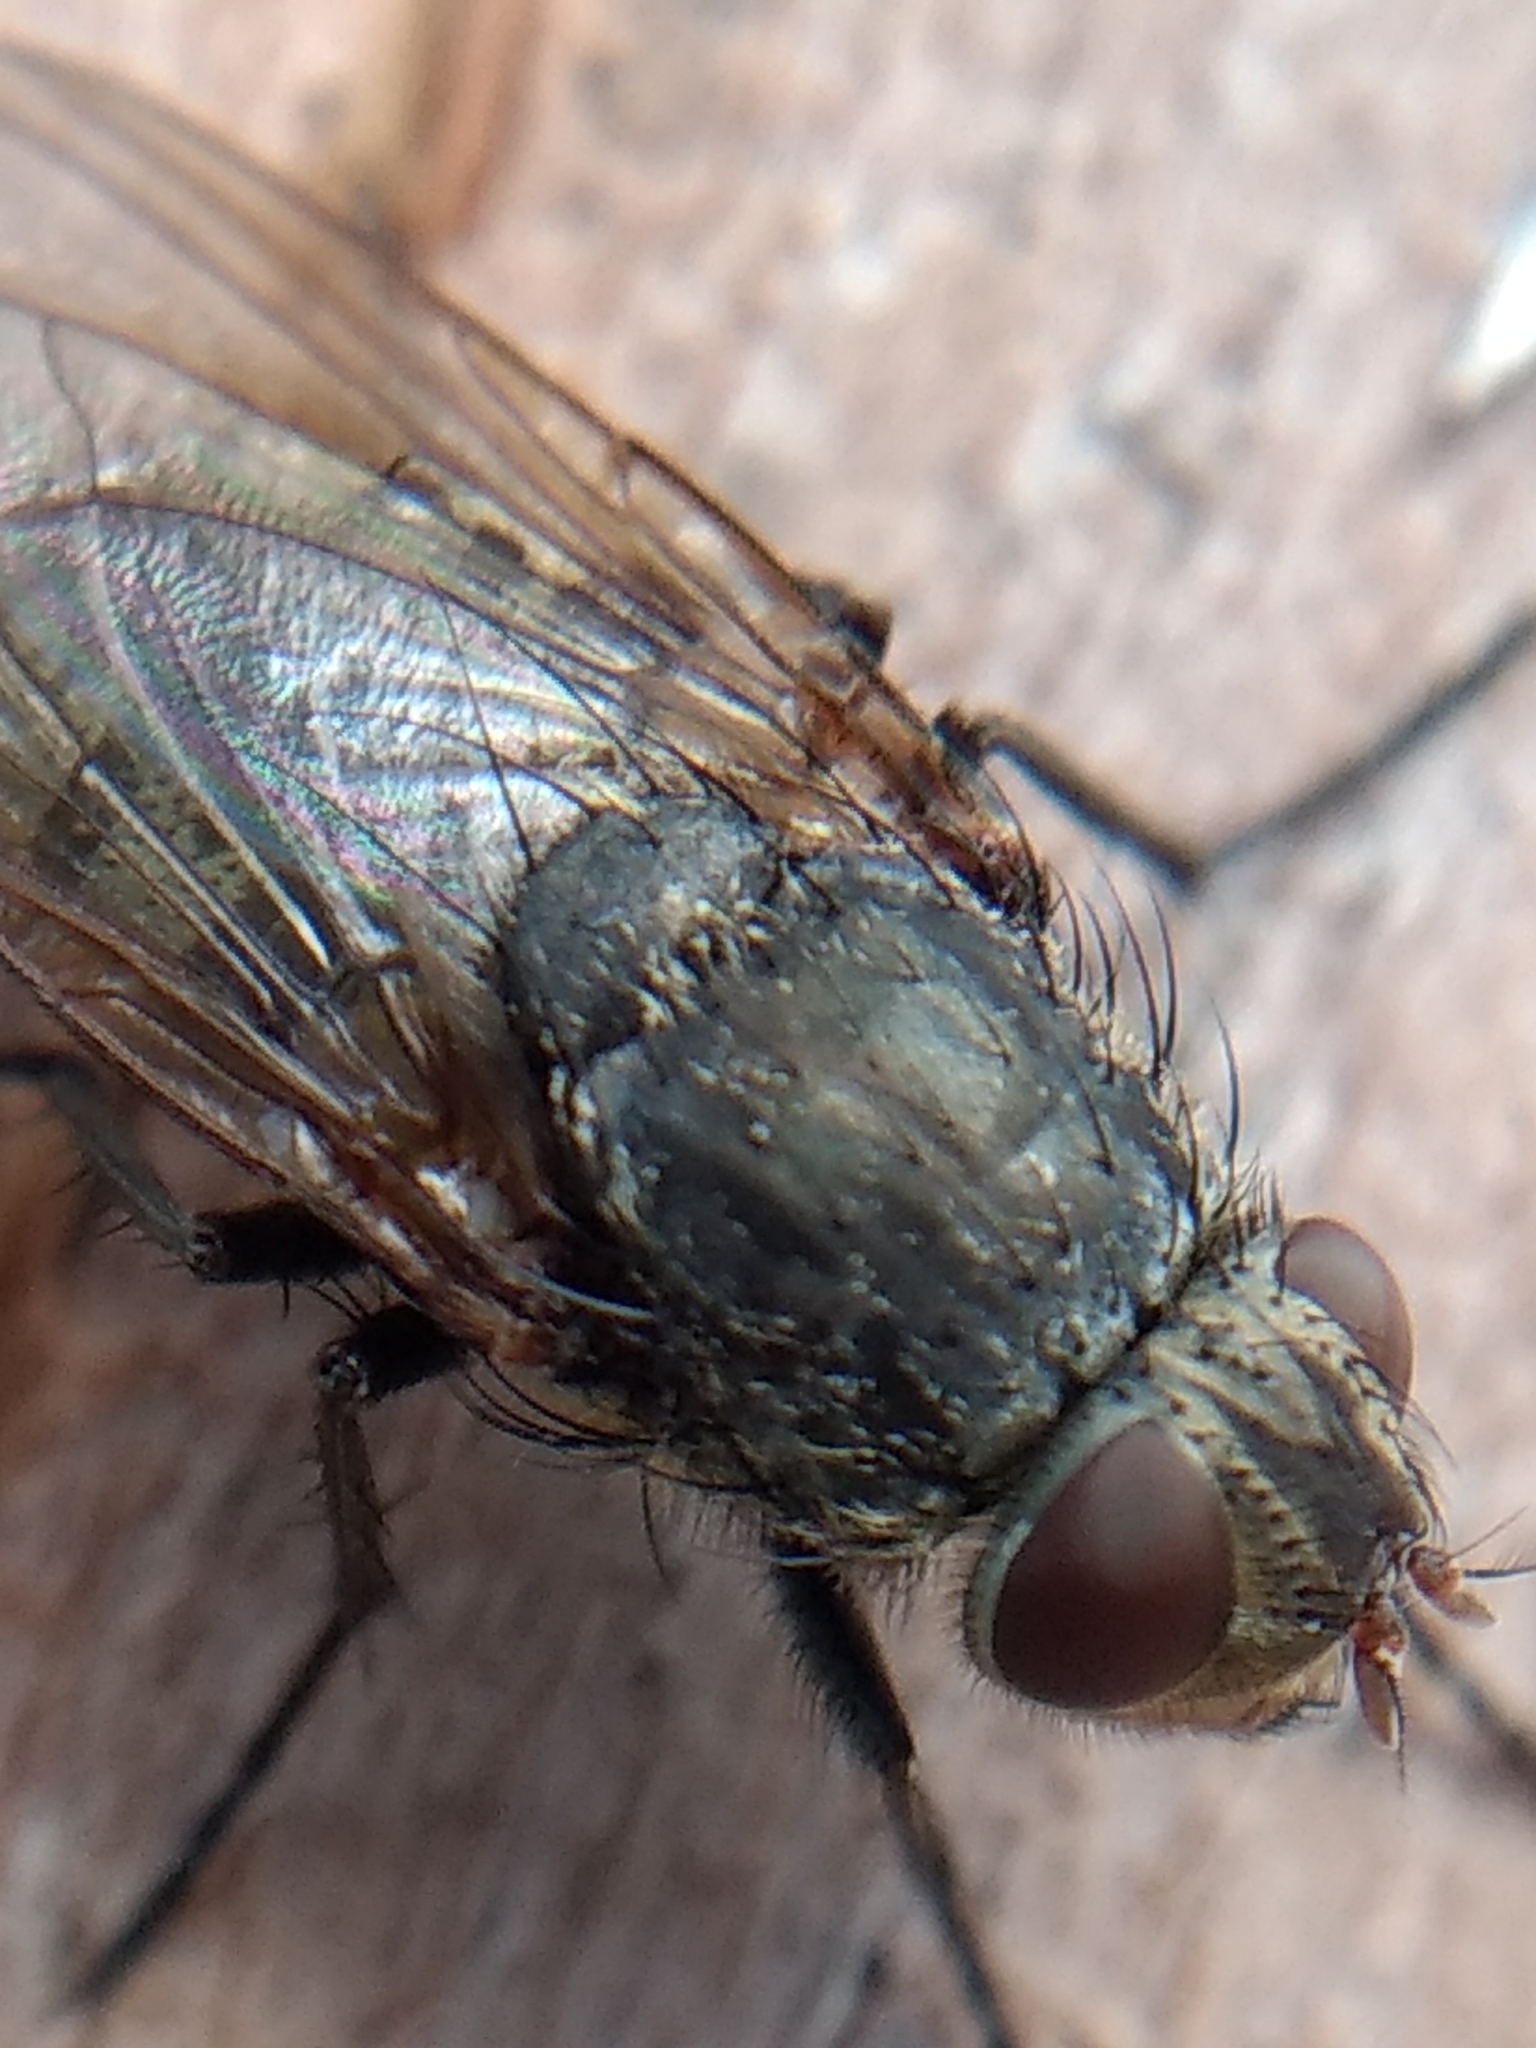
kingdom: Animalia
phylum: Arthropoda
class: Insecta
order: Diptera
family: Polleniidae
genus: Pollenia
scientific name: Pollenia
